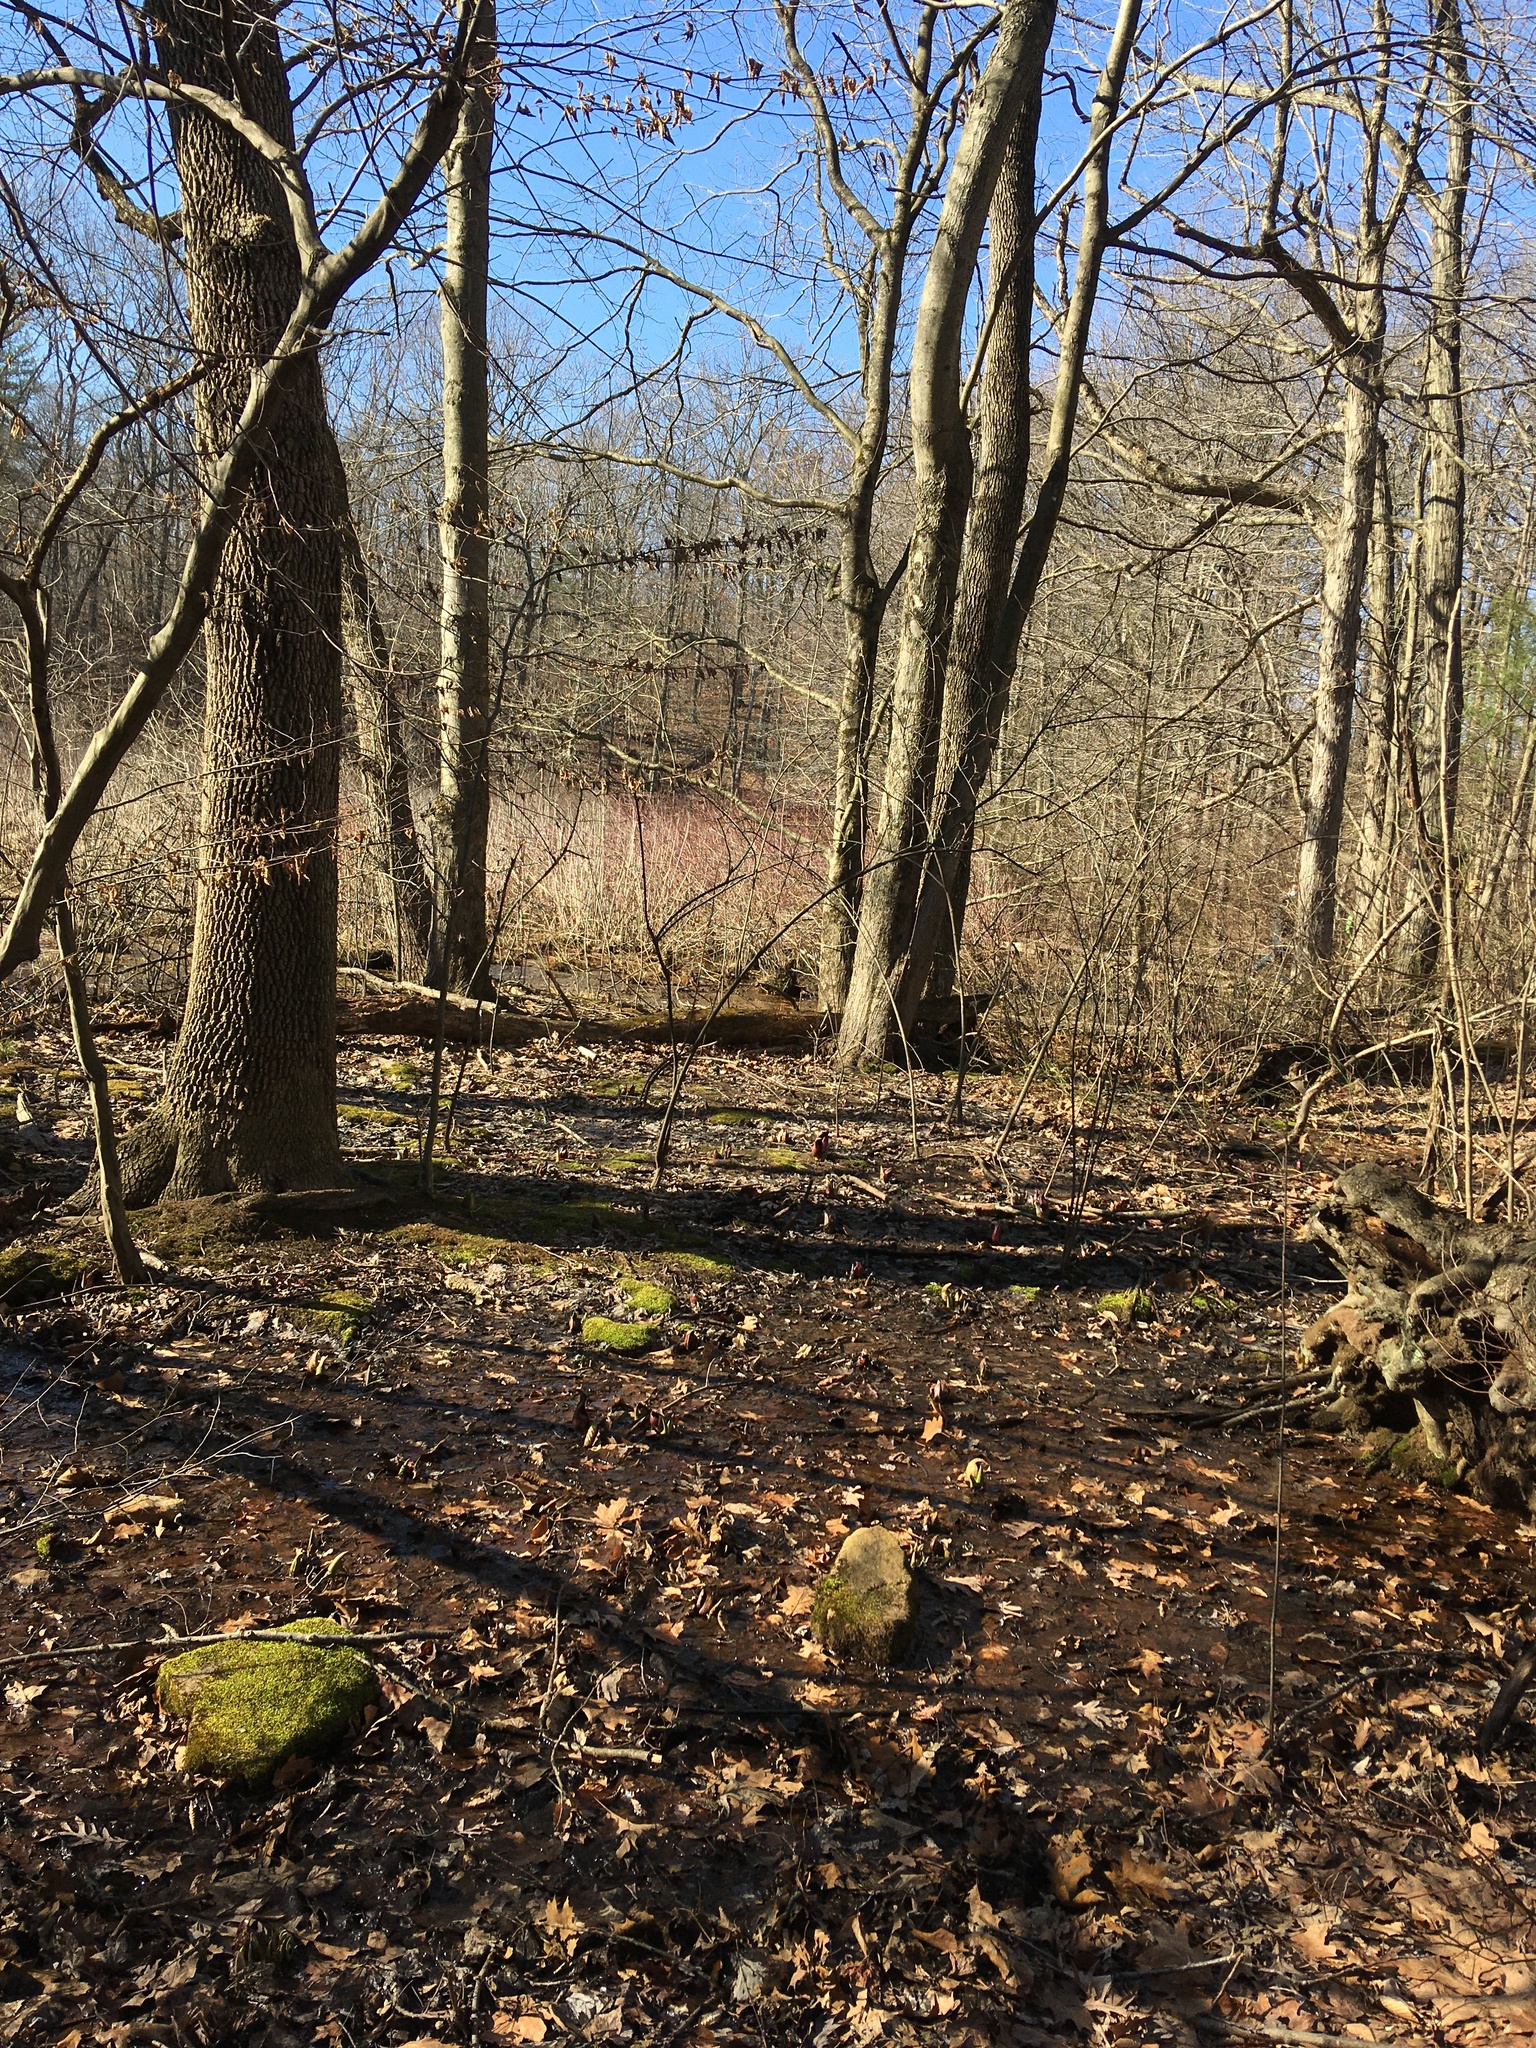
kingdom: Plantae
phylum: Tracheophyta
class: Liliopsida
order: Alismatales
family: Araceae
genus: Symplocarpus
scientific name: Symplocarpus foetidus
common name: Eastern skunk cabbage
